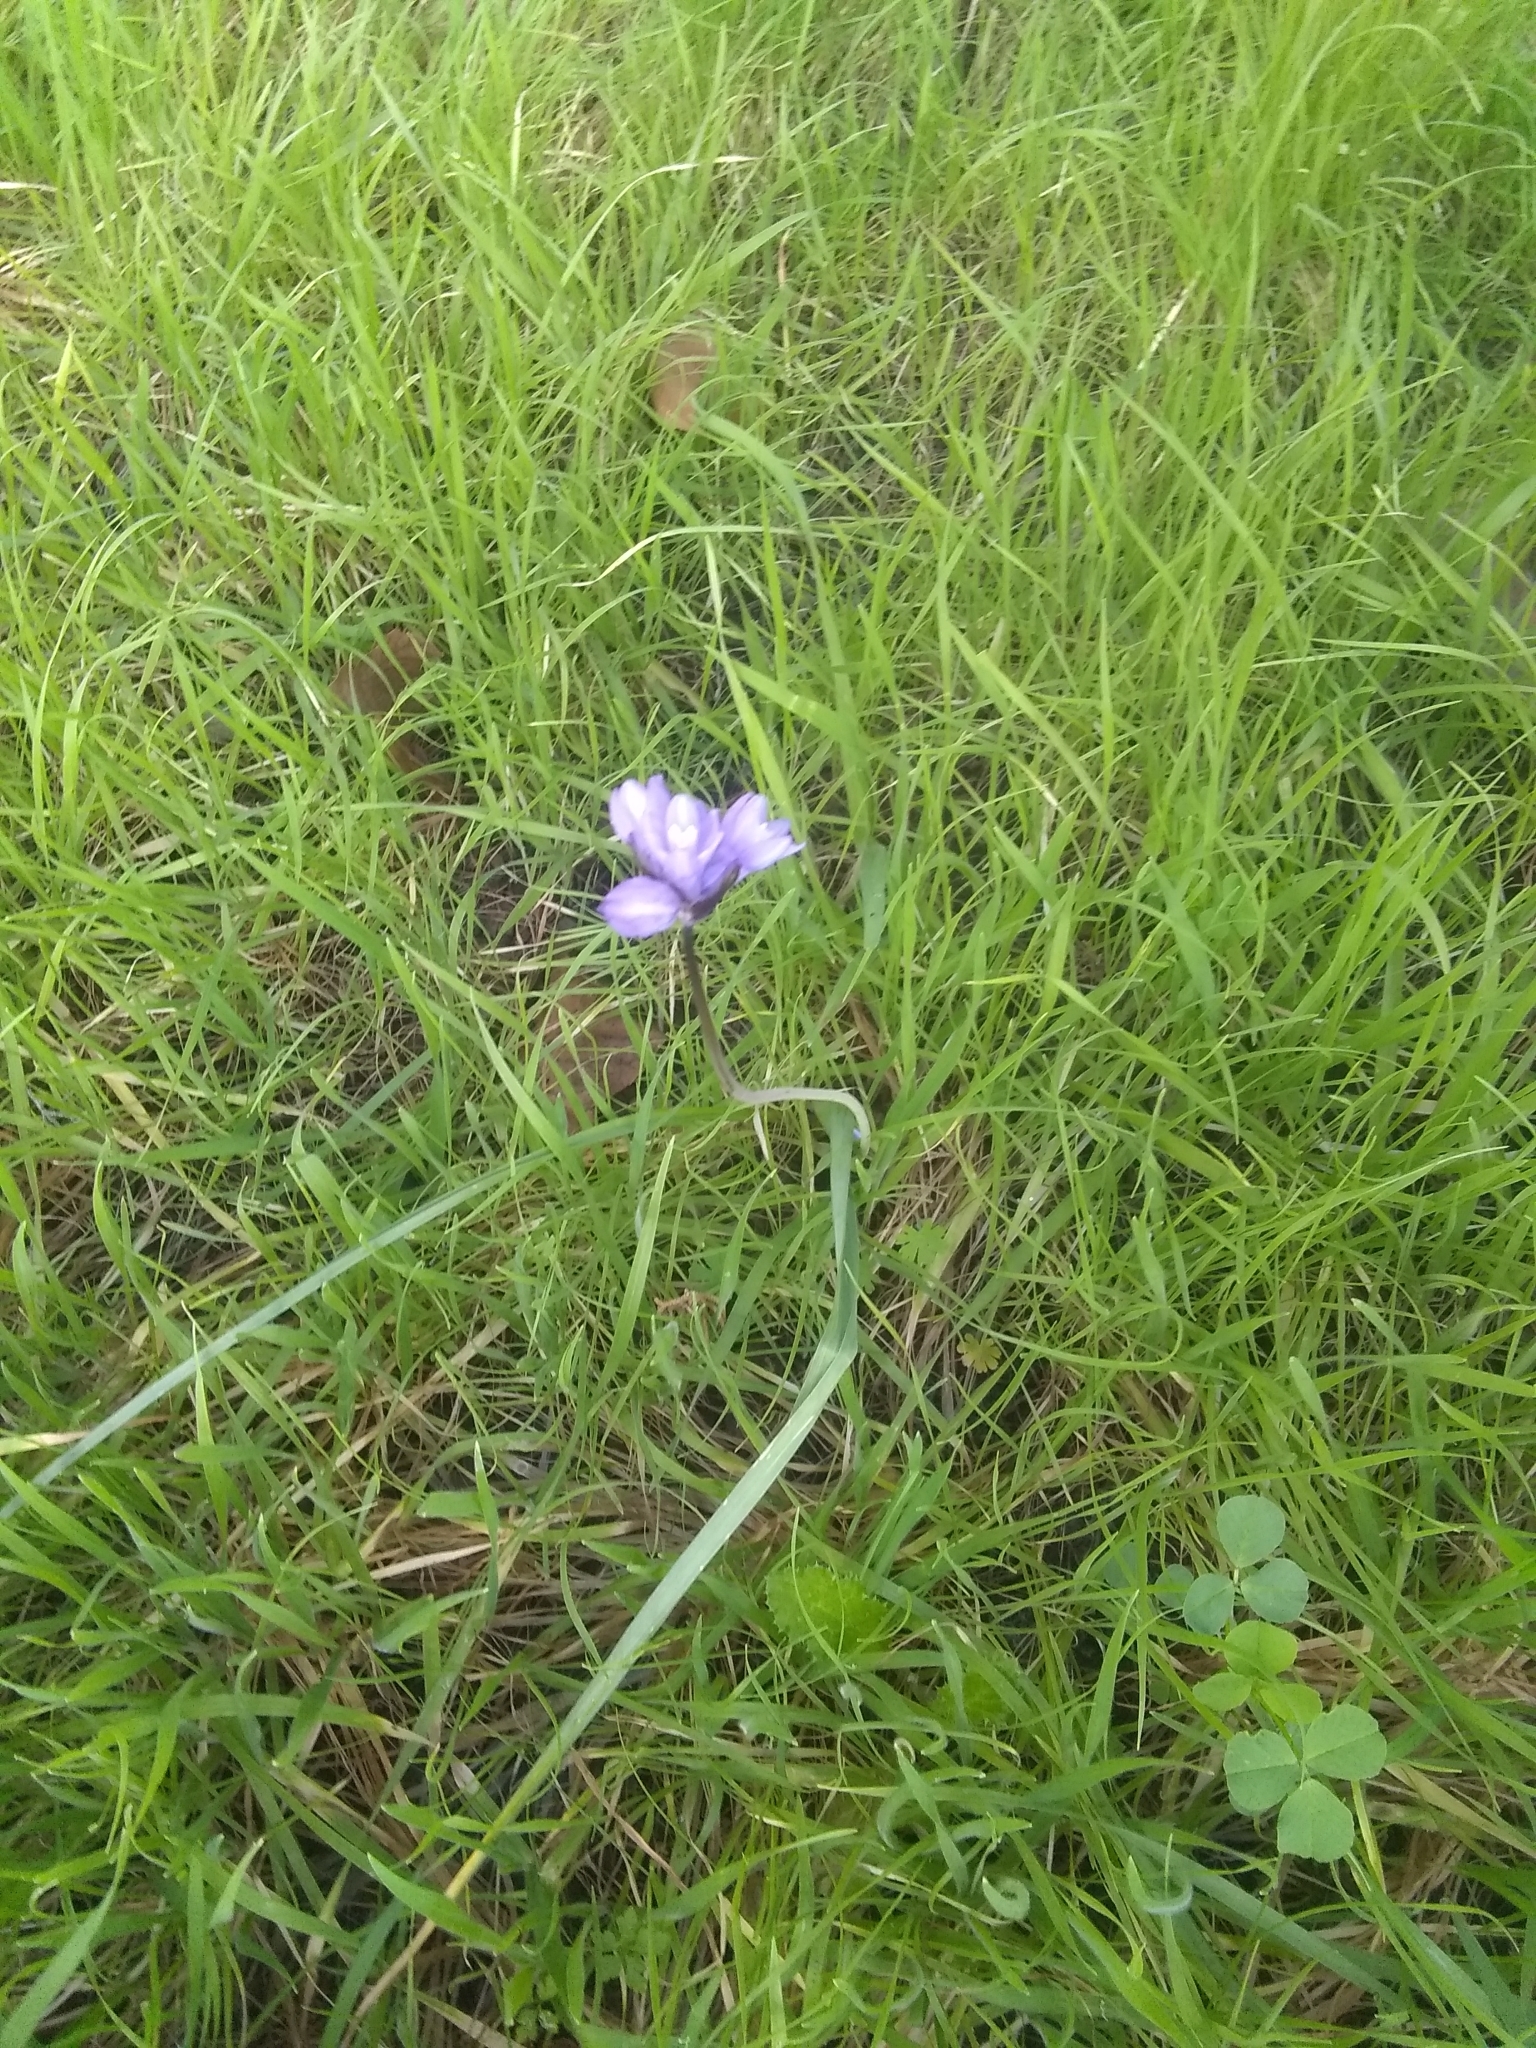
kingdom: Plantae
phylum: Tracheophyta
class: Liliopsida
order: Asparagales
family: Asparagaceae
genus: Dipterostemon
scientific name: Dipterostemon capitatus
